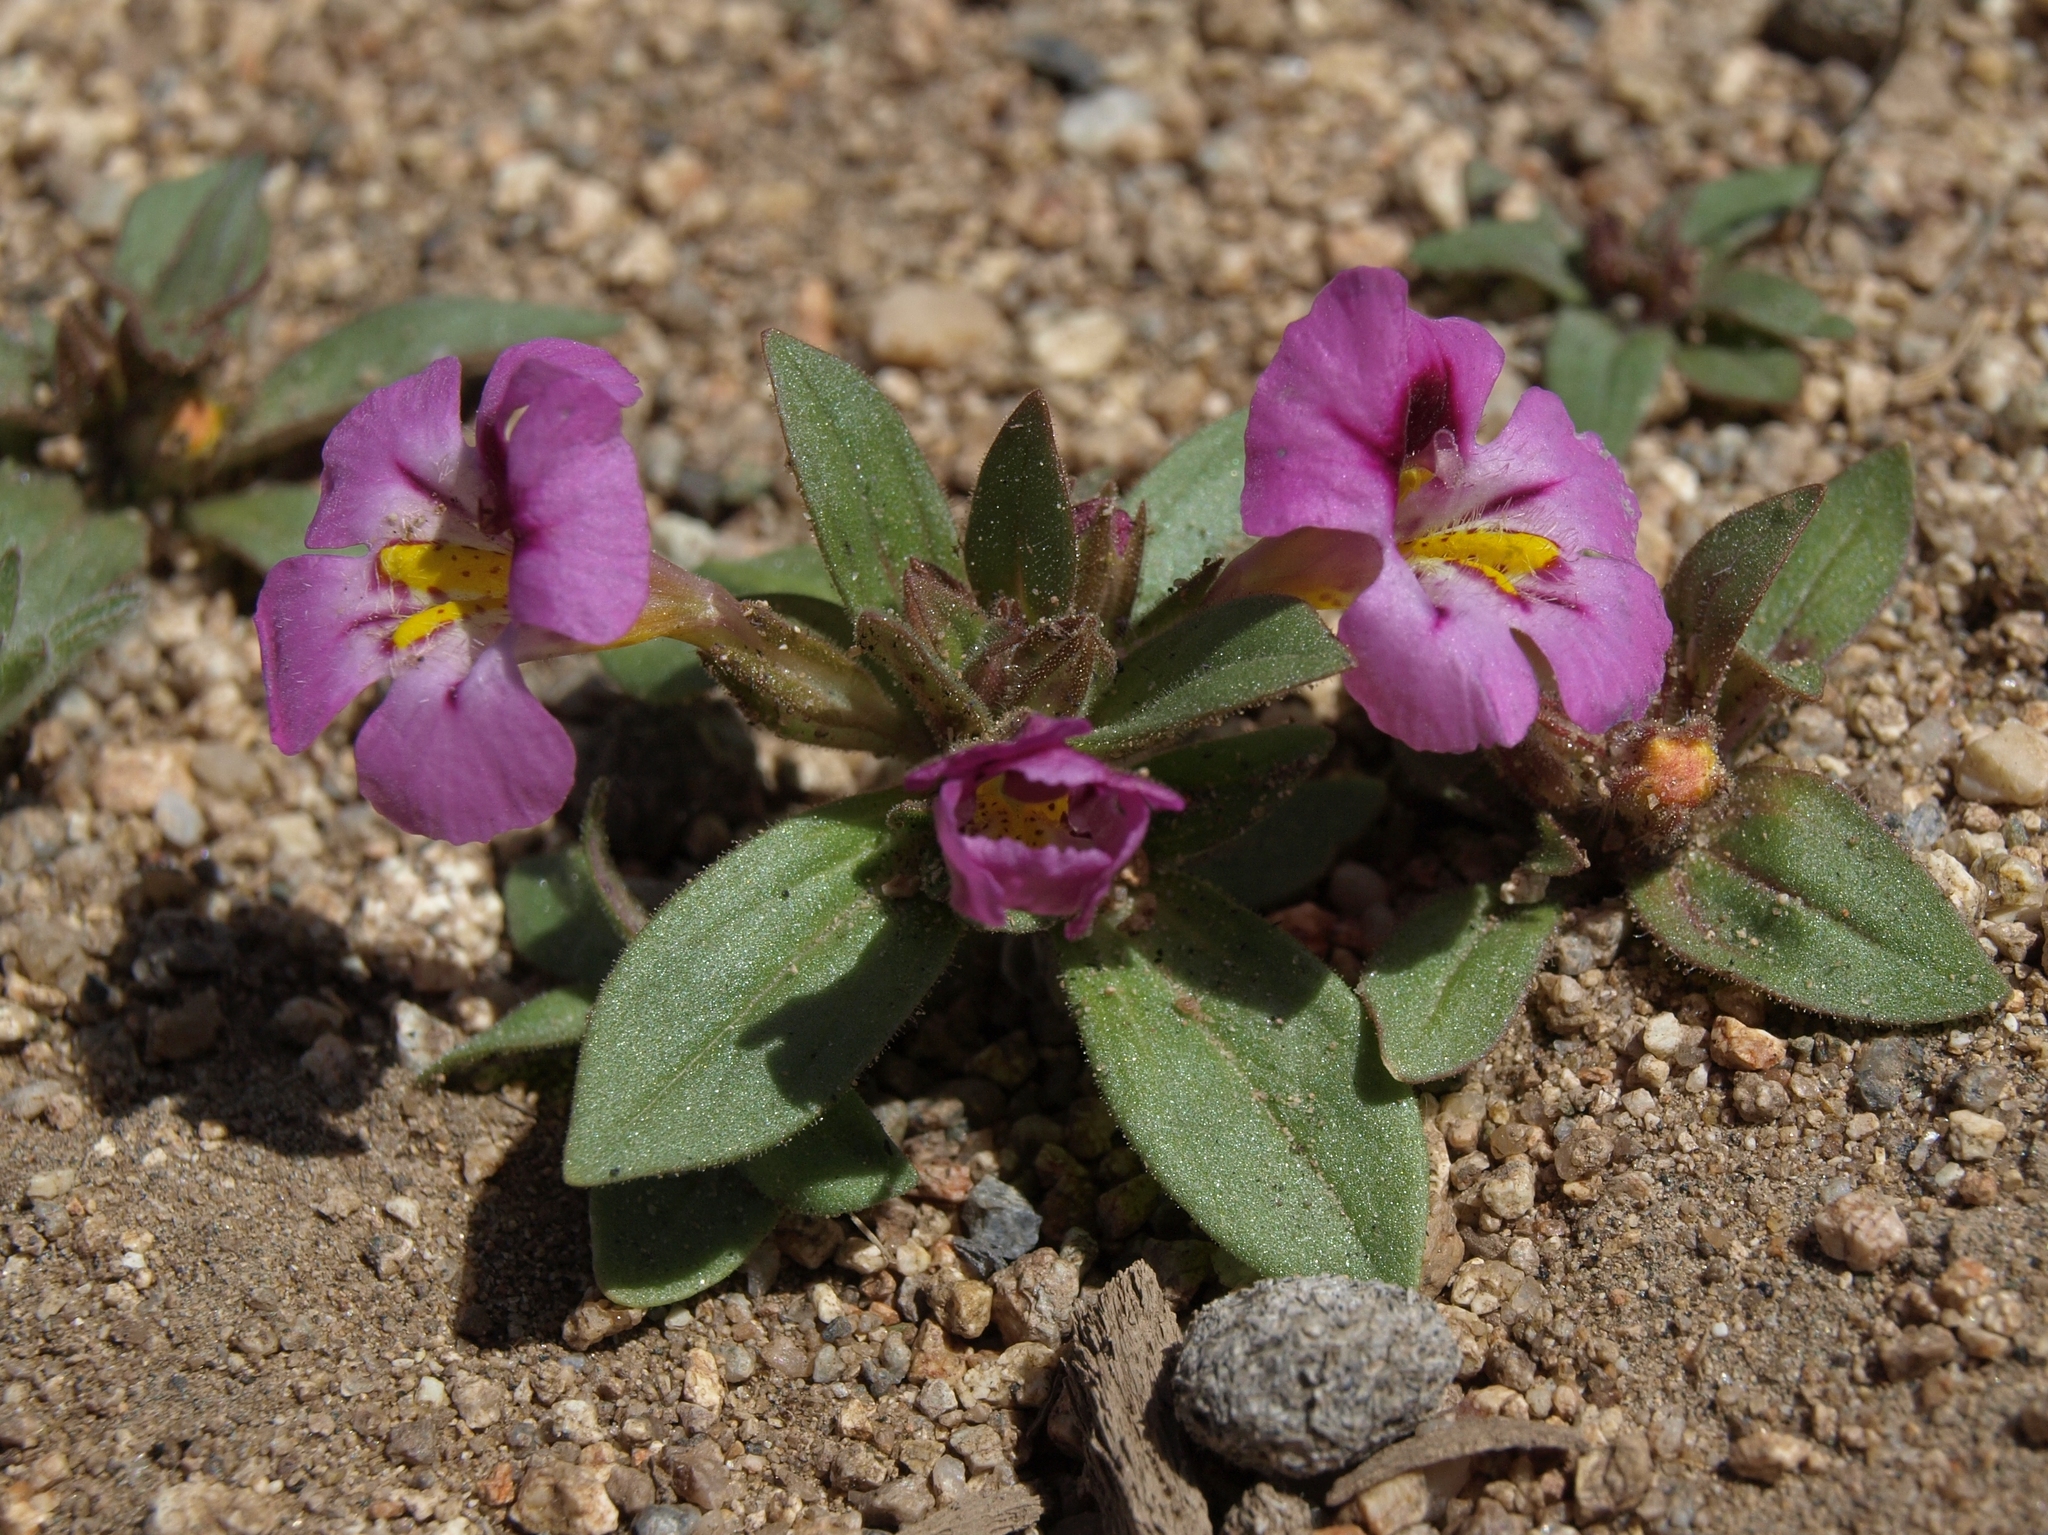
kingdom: Plantae
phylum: Tracheophyta
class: Magnoliopsida
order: Lamiales
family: Phrymaceae
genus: Diplacus
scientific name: Diplacus mephiticus
